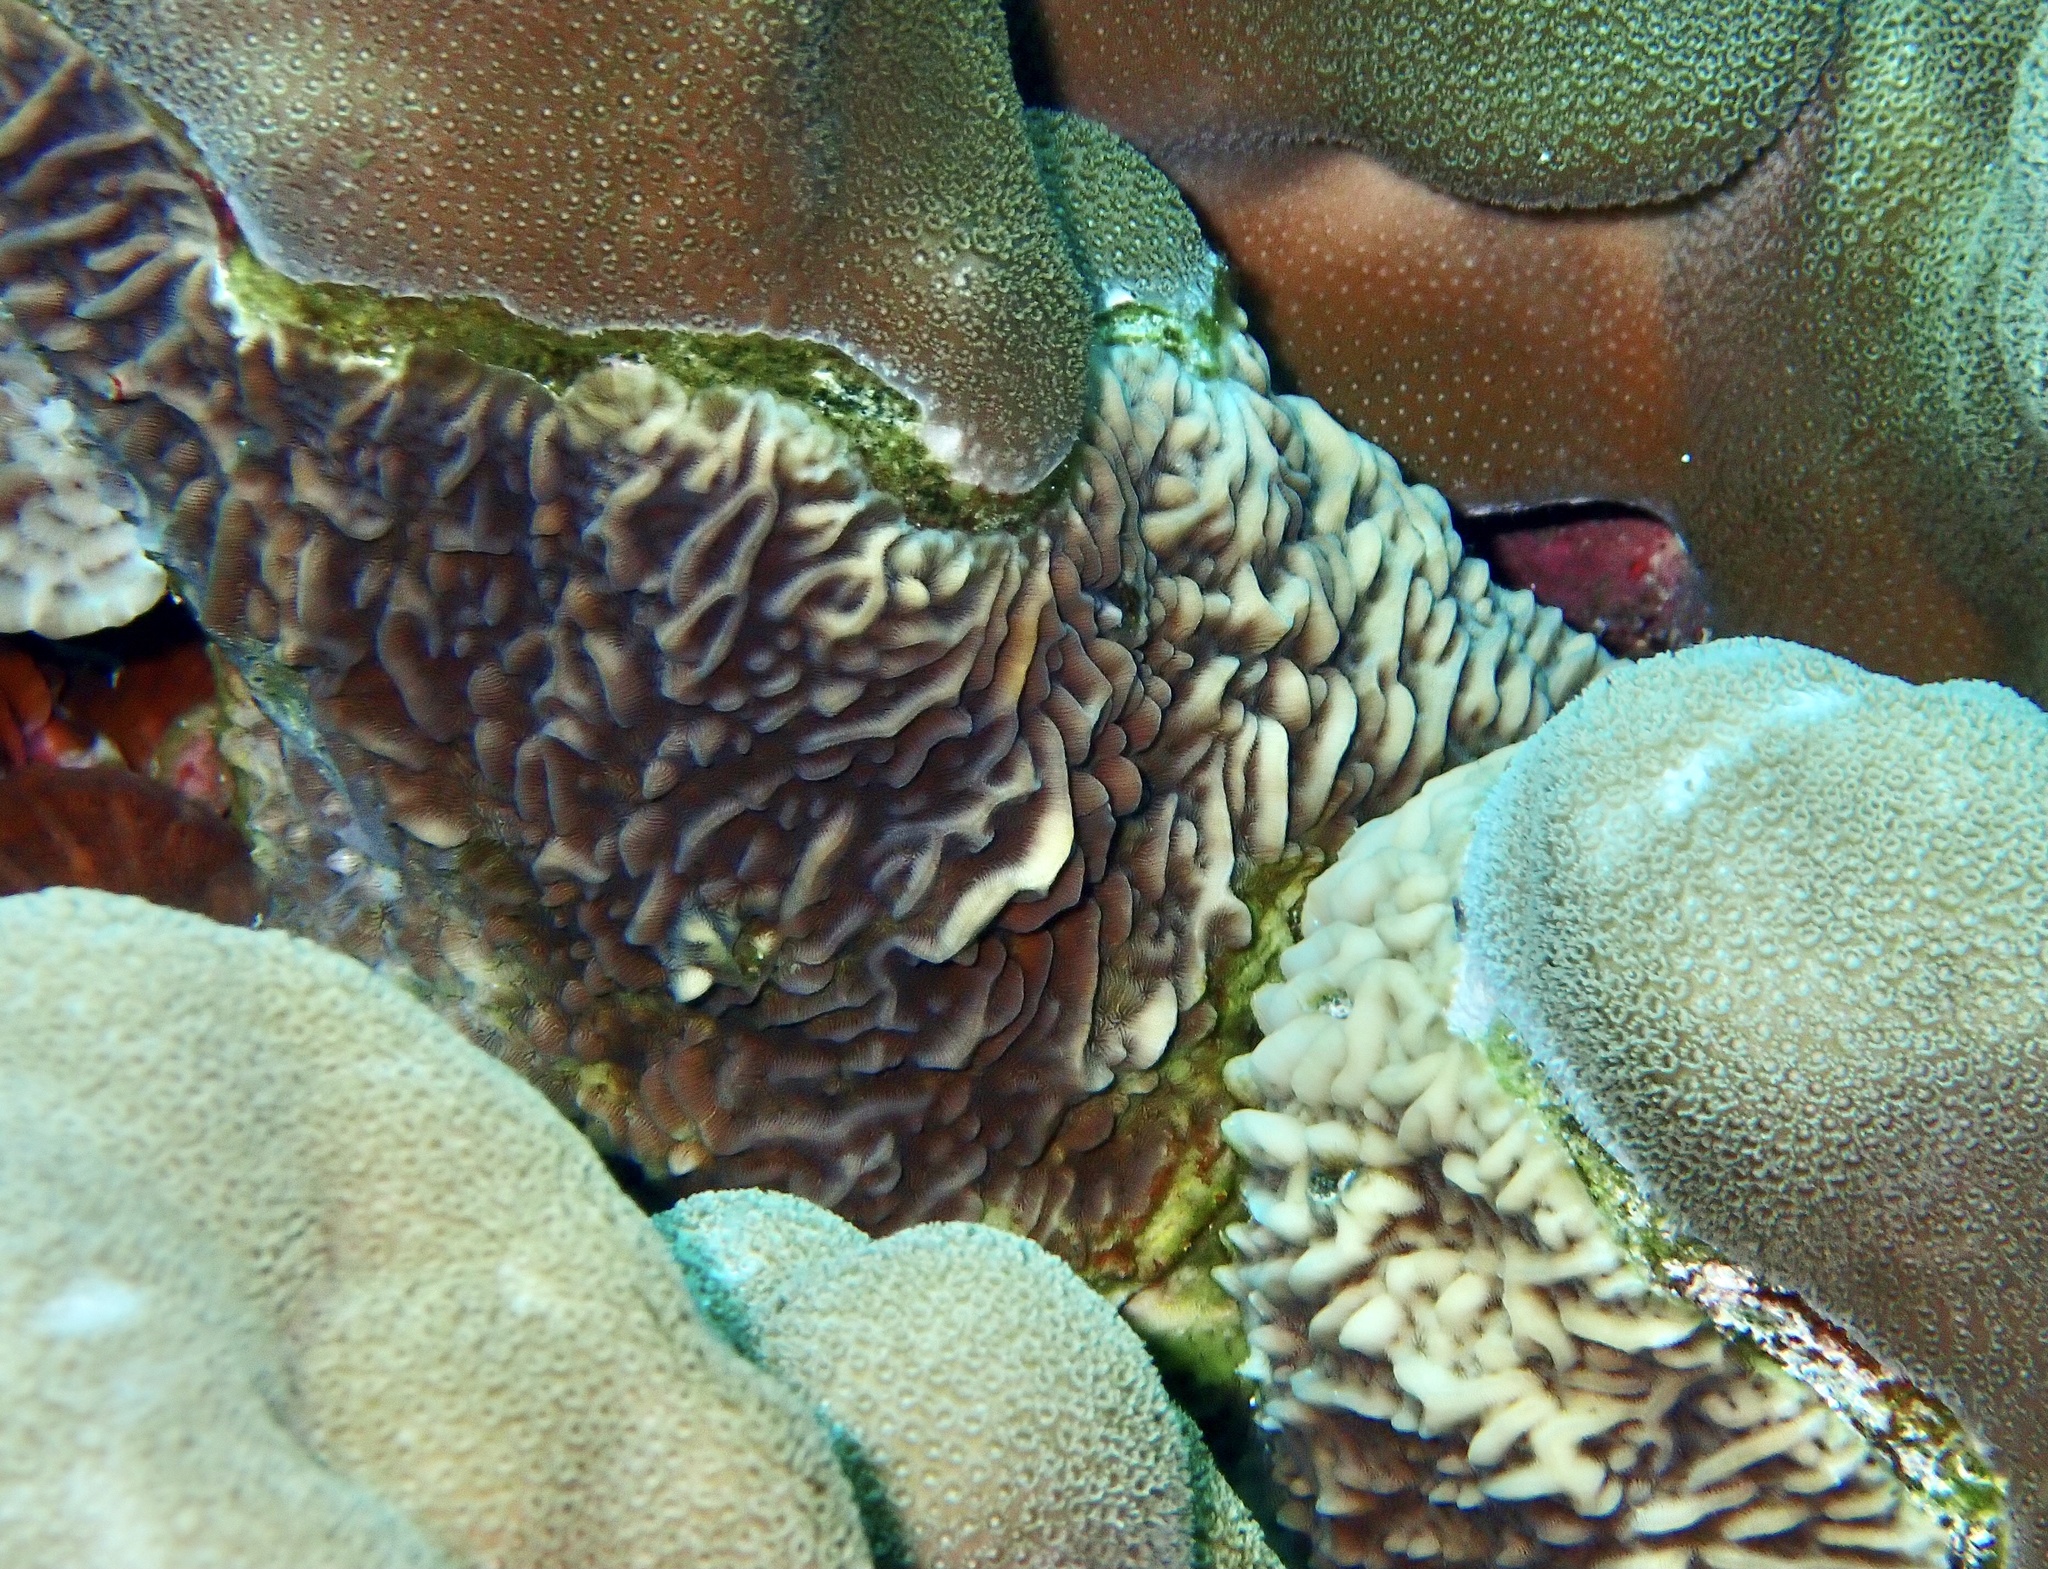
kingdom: Animalia
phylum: Cnidaria
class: Anthozoa
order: Scleractinia
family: Agariciidae
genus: Pavona
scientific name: Pavona varians
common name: Leaf coral
